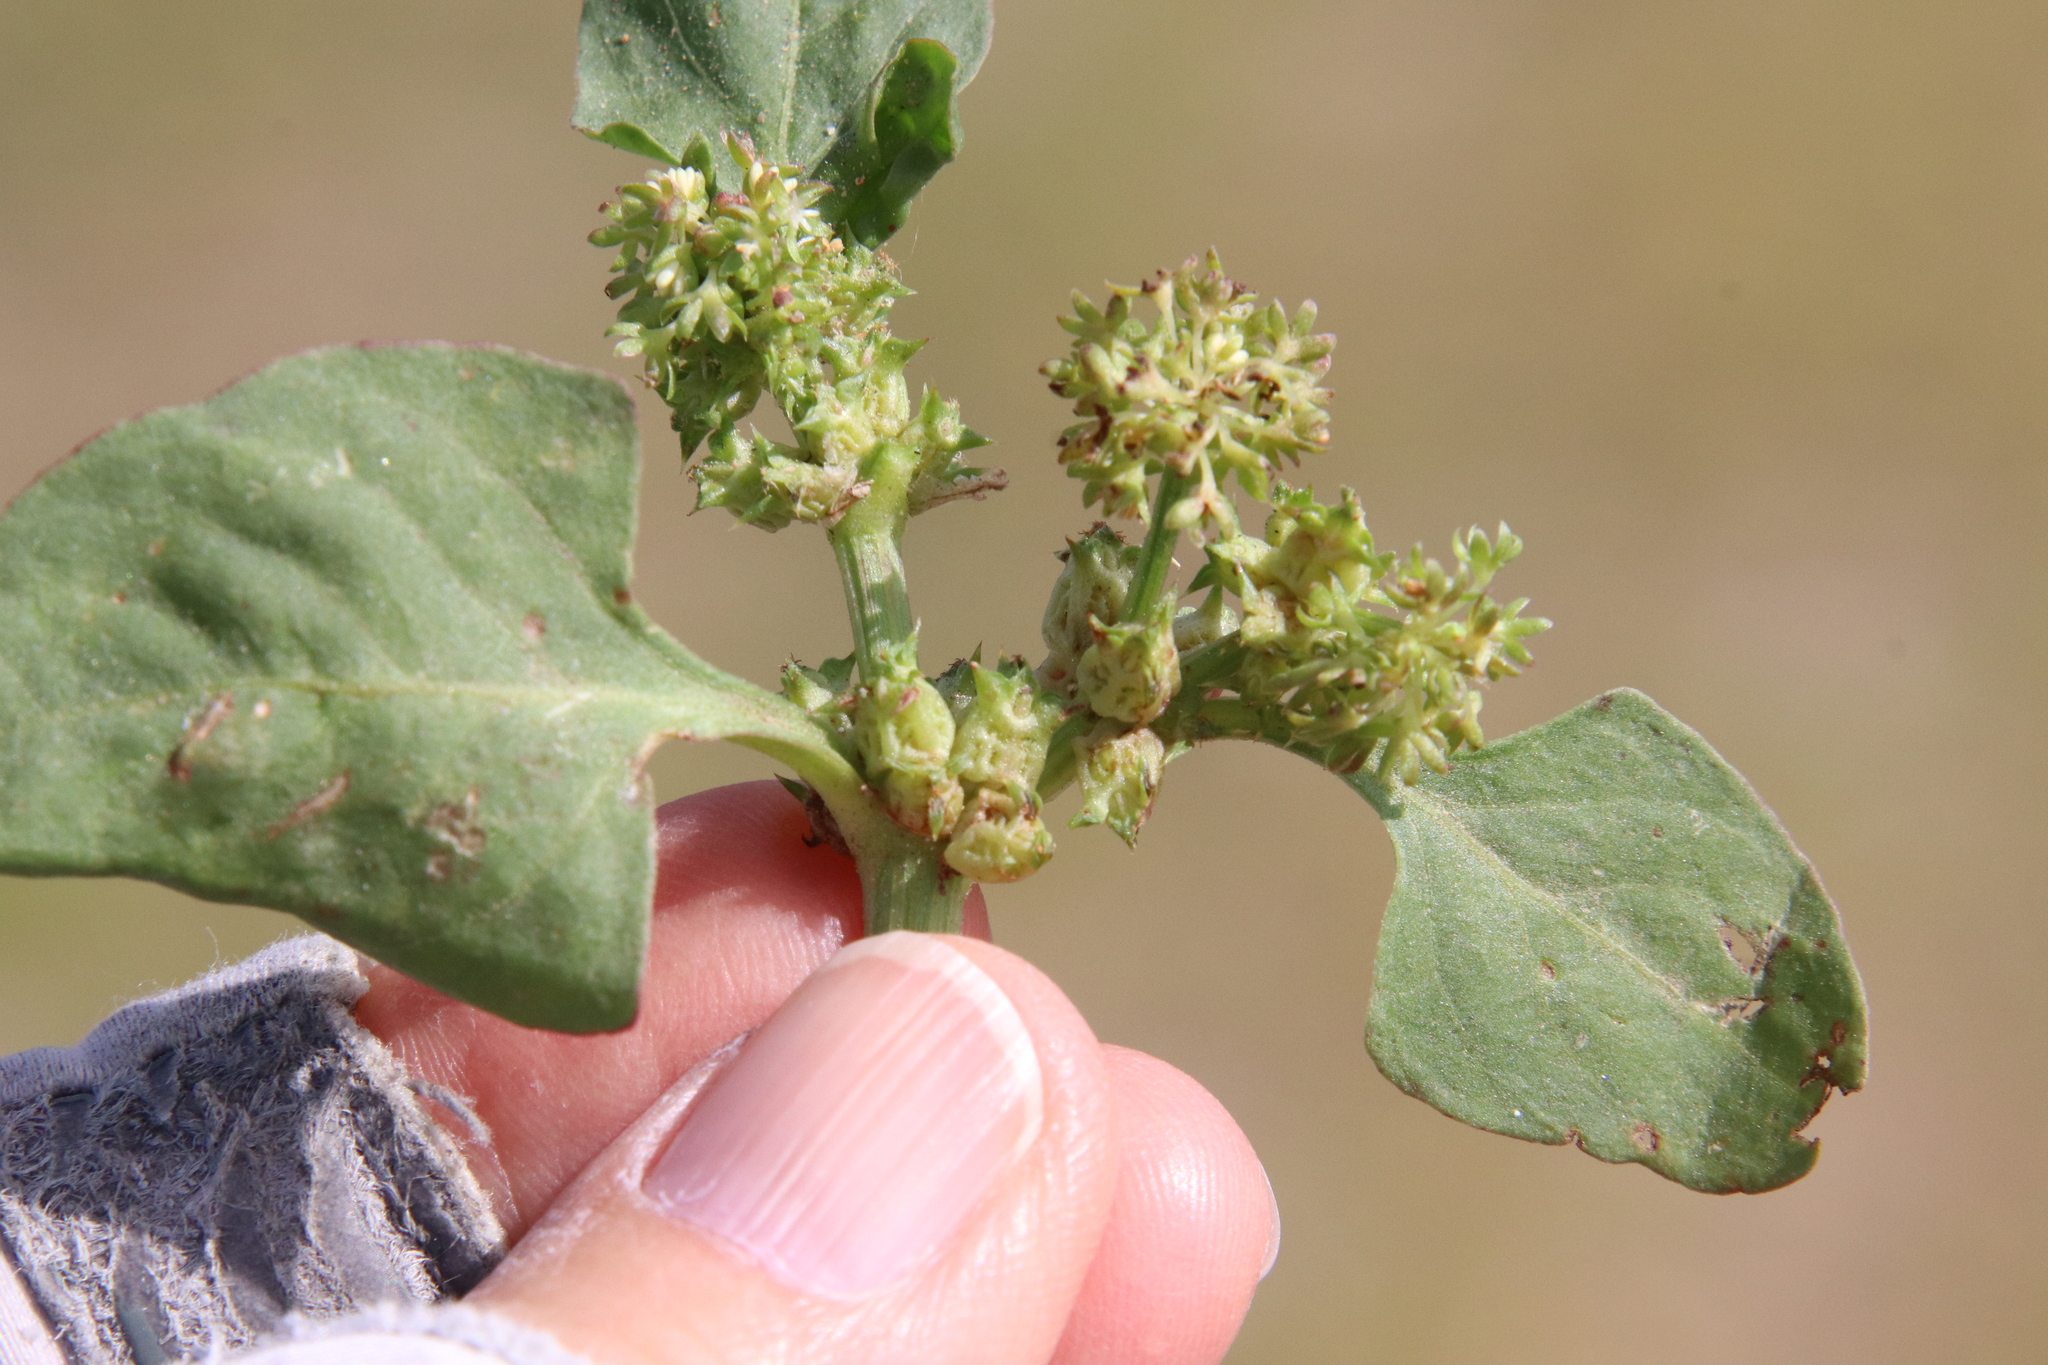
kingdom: Plantae
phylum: Tracheophyta
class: Magnoliopsida
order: Caryophyllales
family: Polygonaceae
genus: Rumex
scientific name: Rumex spinosus
